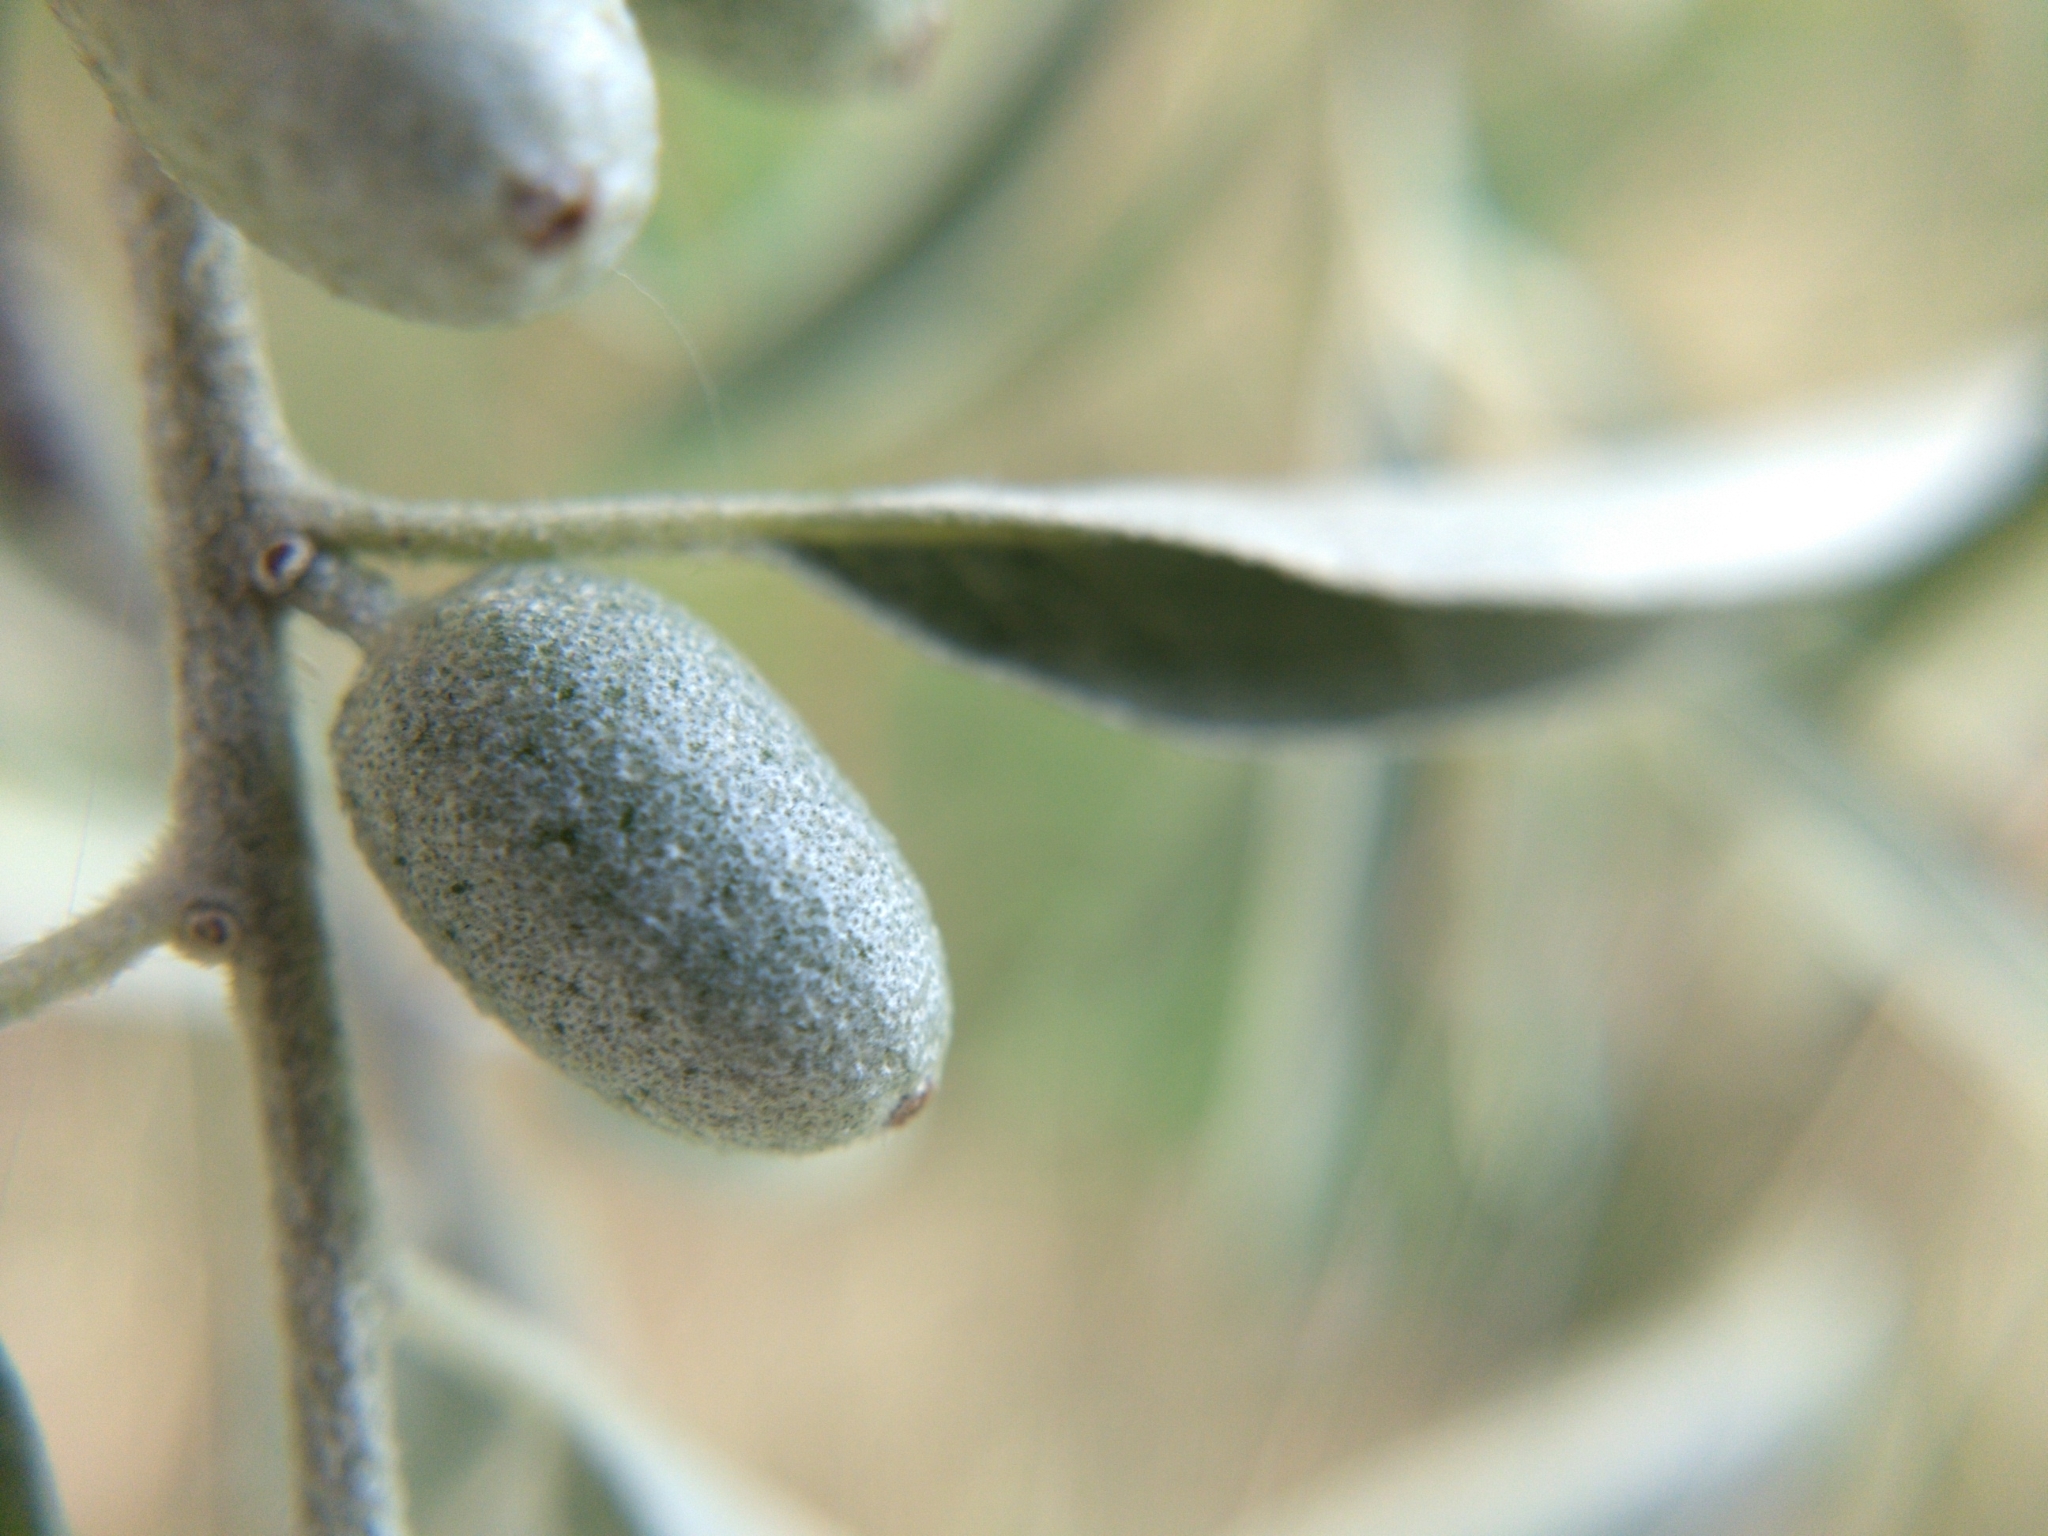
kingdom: Plantae
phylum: Tracheophyta
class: Magnoliopsida
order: Rosales
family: Elaeagnaceae
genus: Elaeagnus
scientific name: Elaeagnus angustifolia
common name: Russian olive
